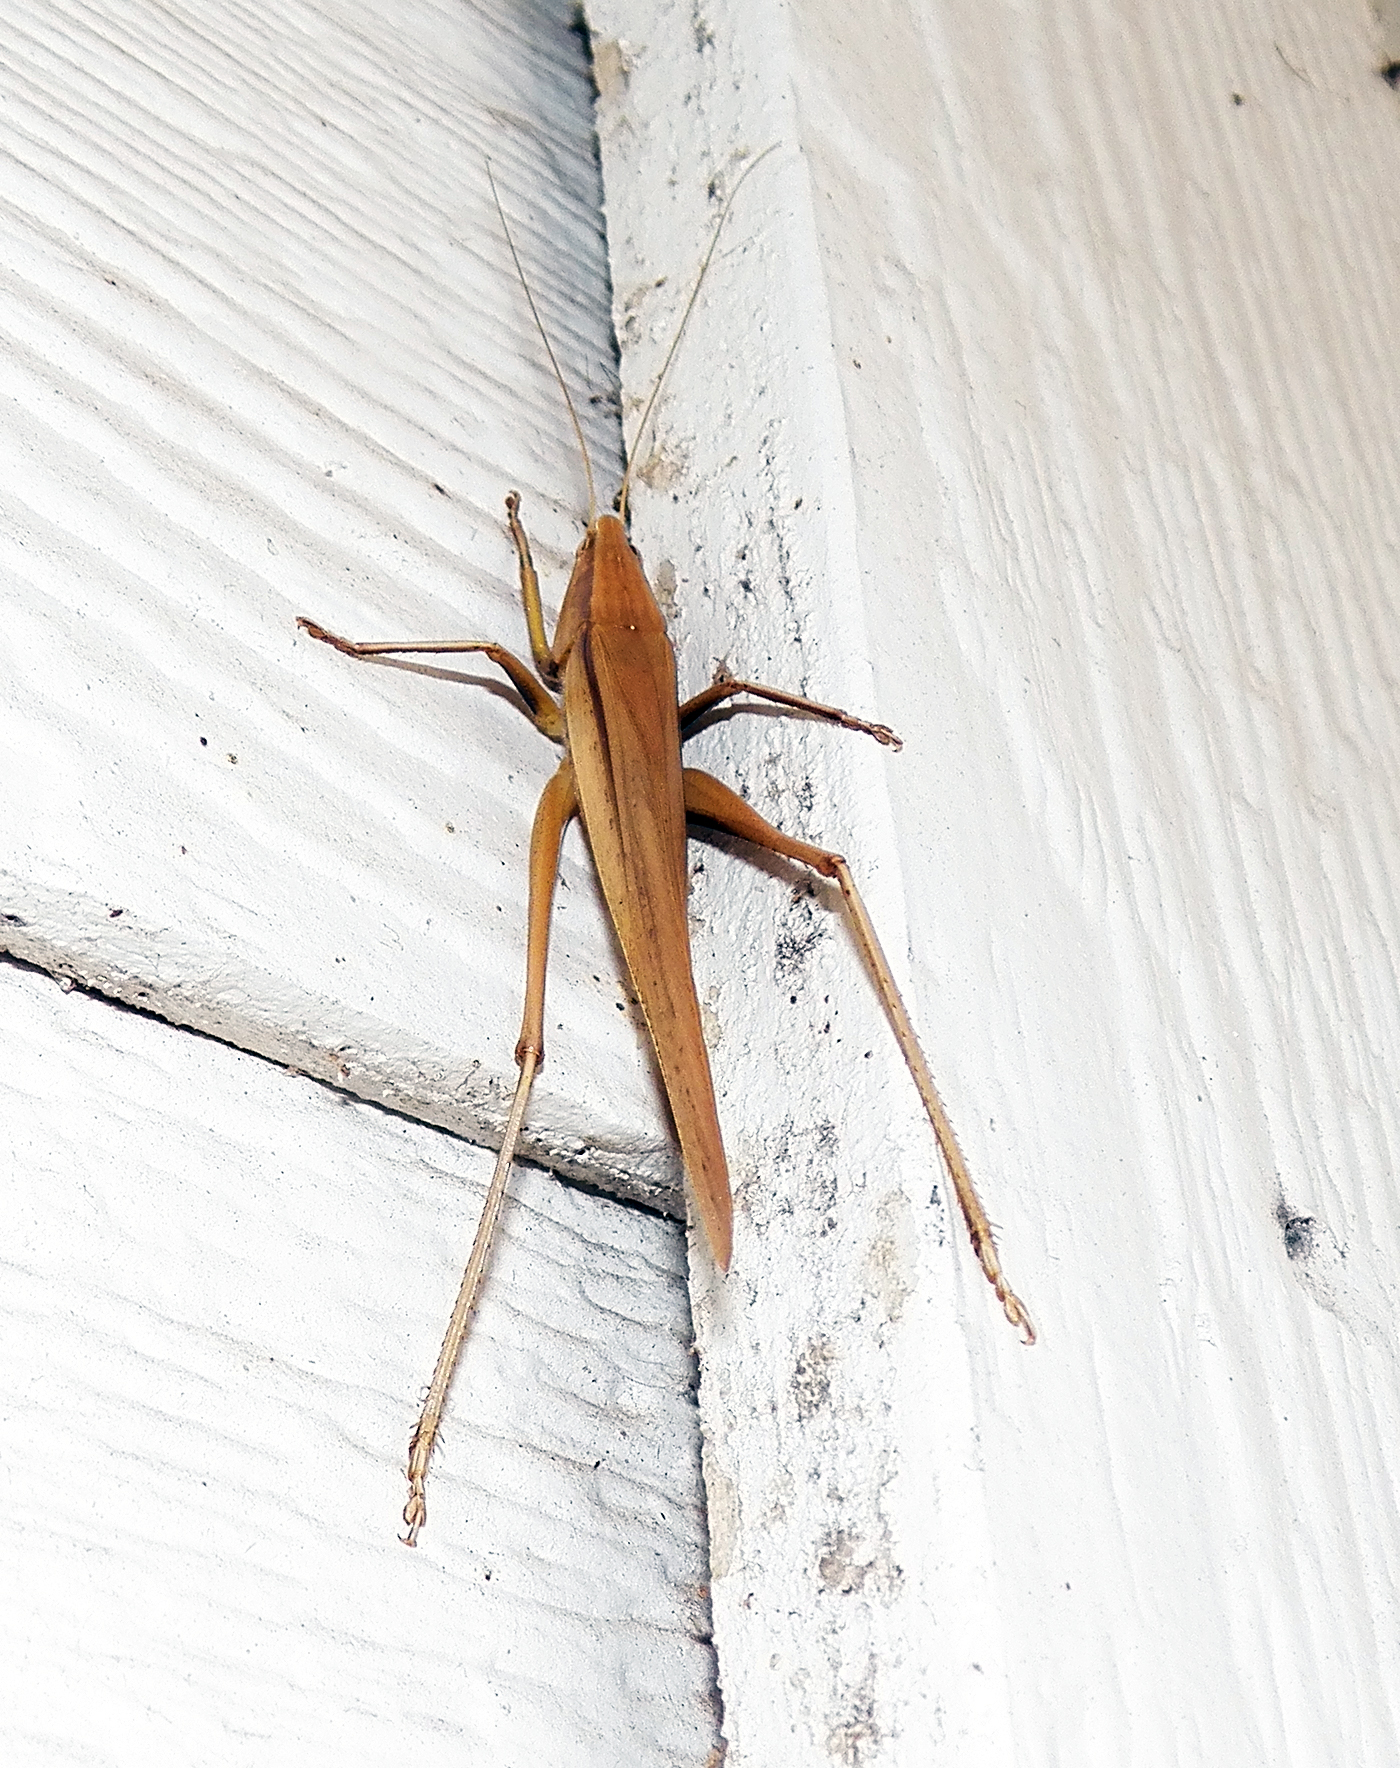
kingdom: Animalia
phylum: Arthropoda
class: Insecta
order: Orthoptera
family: Tettigoniidae
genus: Neoconocephalus
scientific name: Neoconocephalus triops
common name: Broad-tipped conehead
